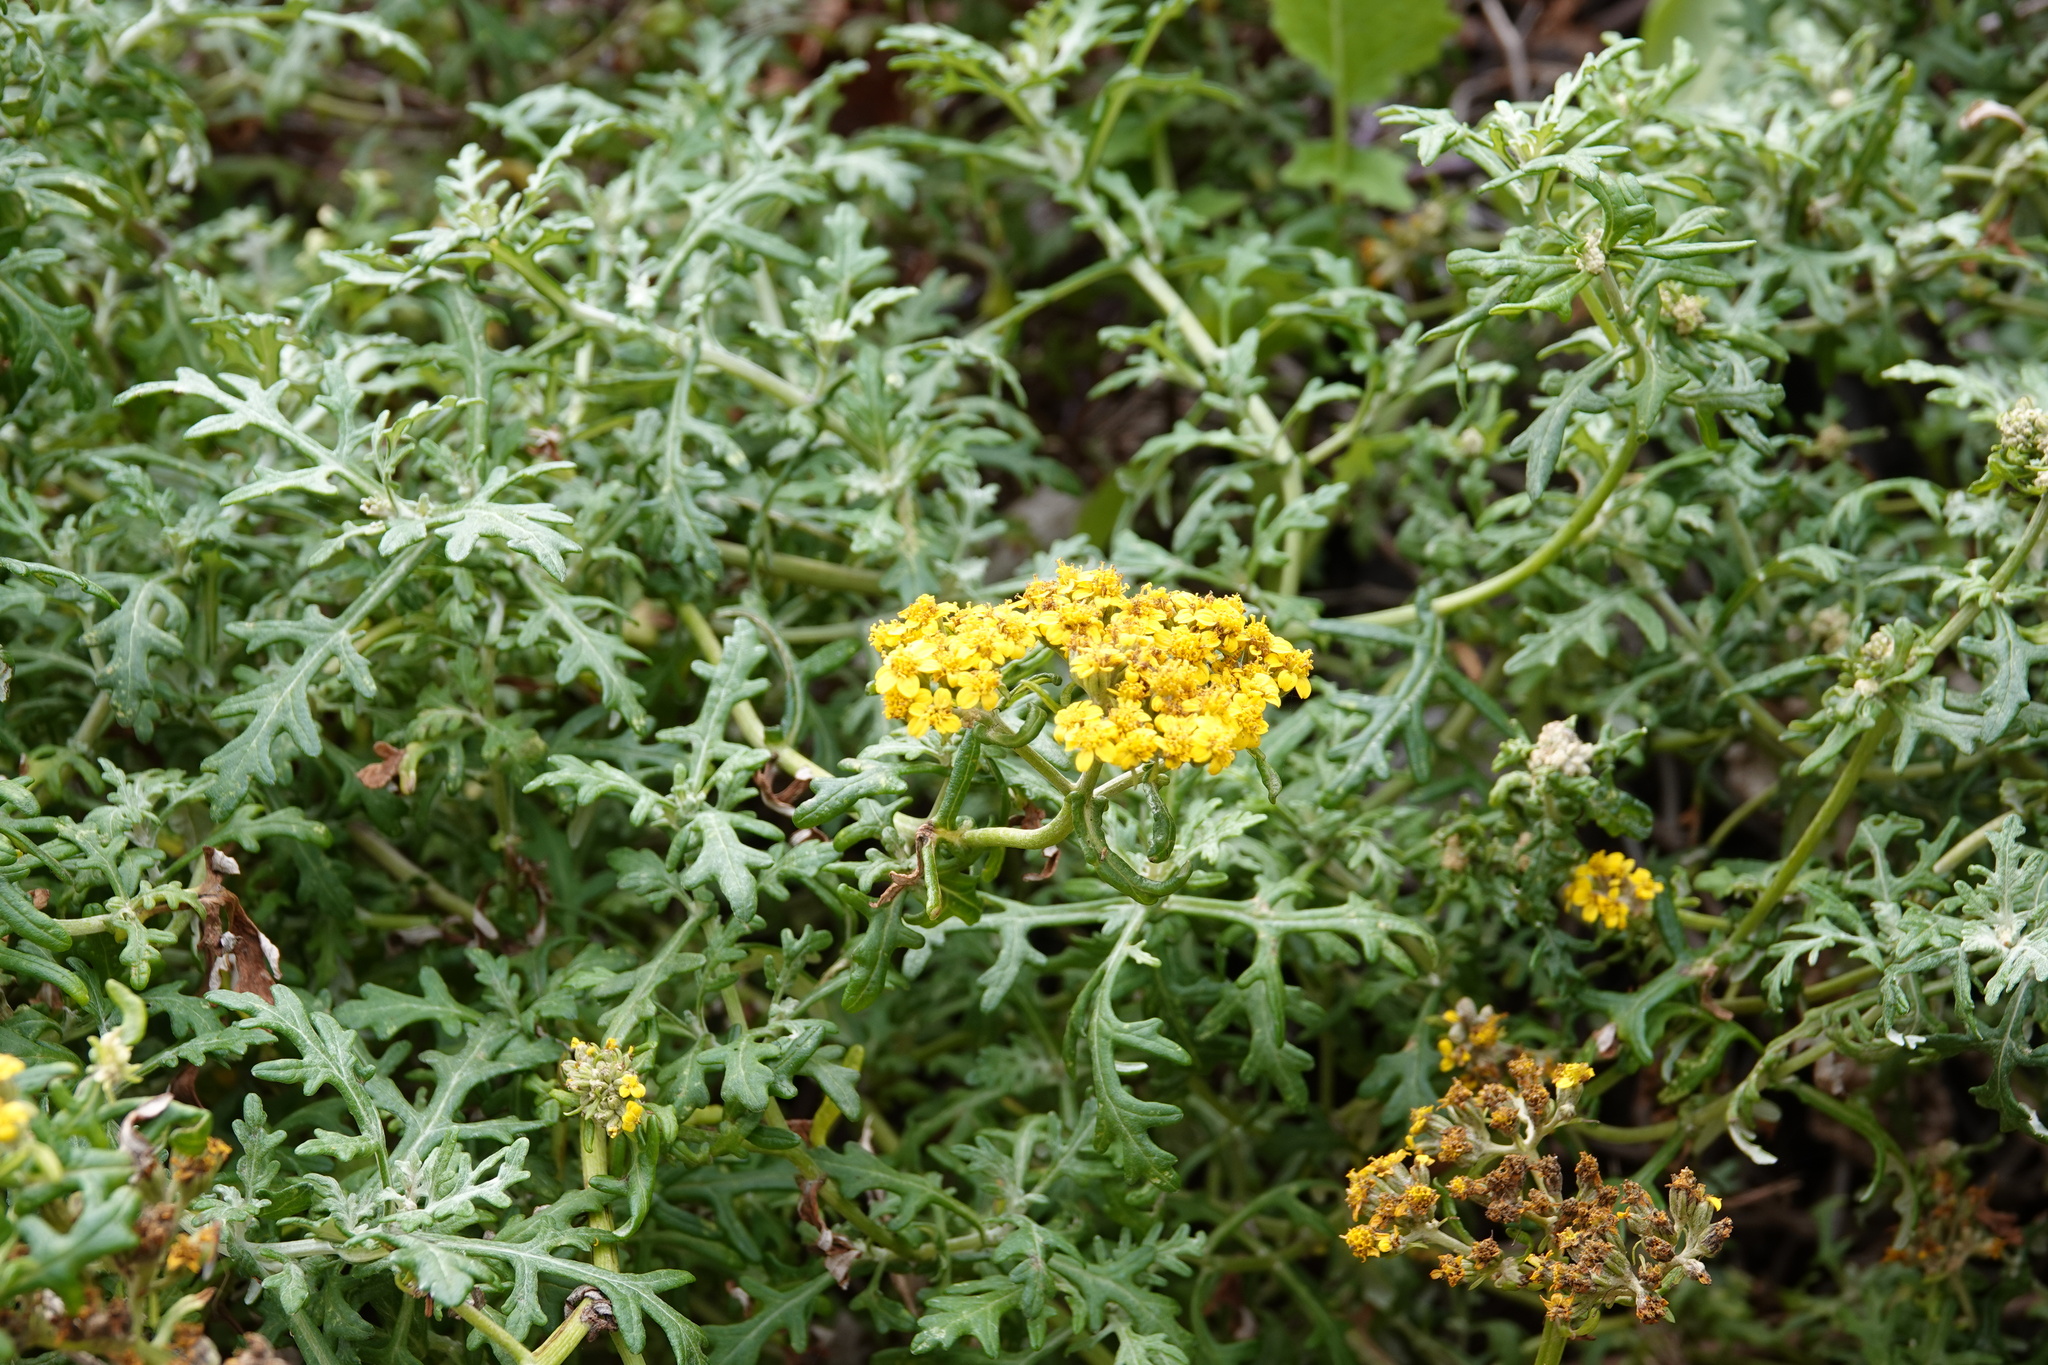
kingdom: Plantae
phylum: Tracheophyta
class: Magnoliopsida
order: Asterales
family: Asteraceae
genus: Eriophyllum
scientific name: Eriophyllum staechadifolium
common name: Lizardtail
